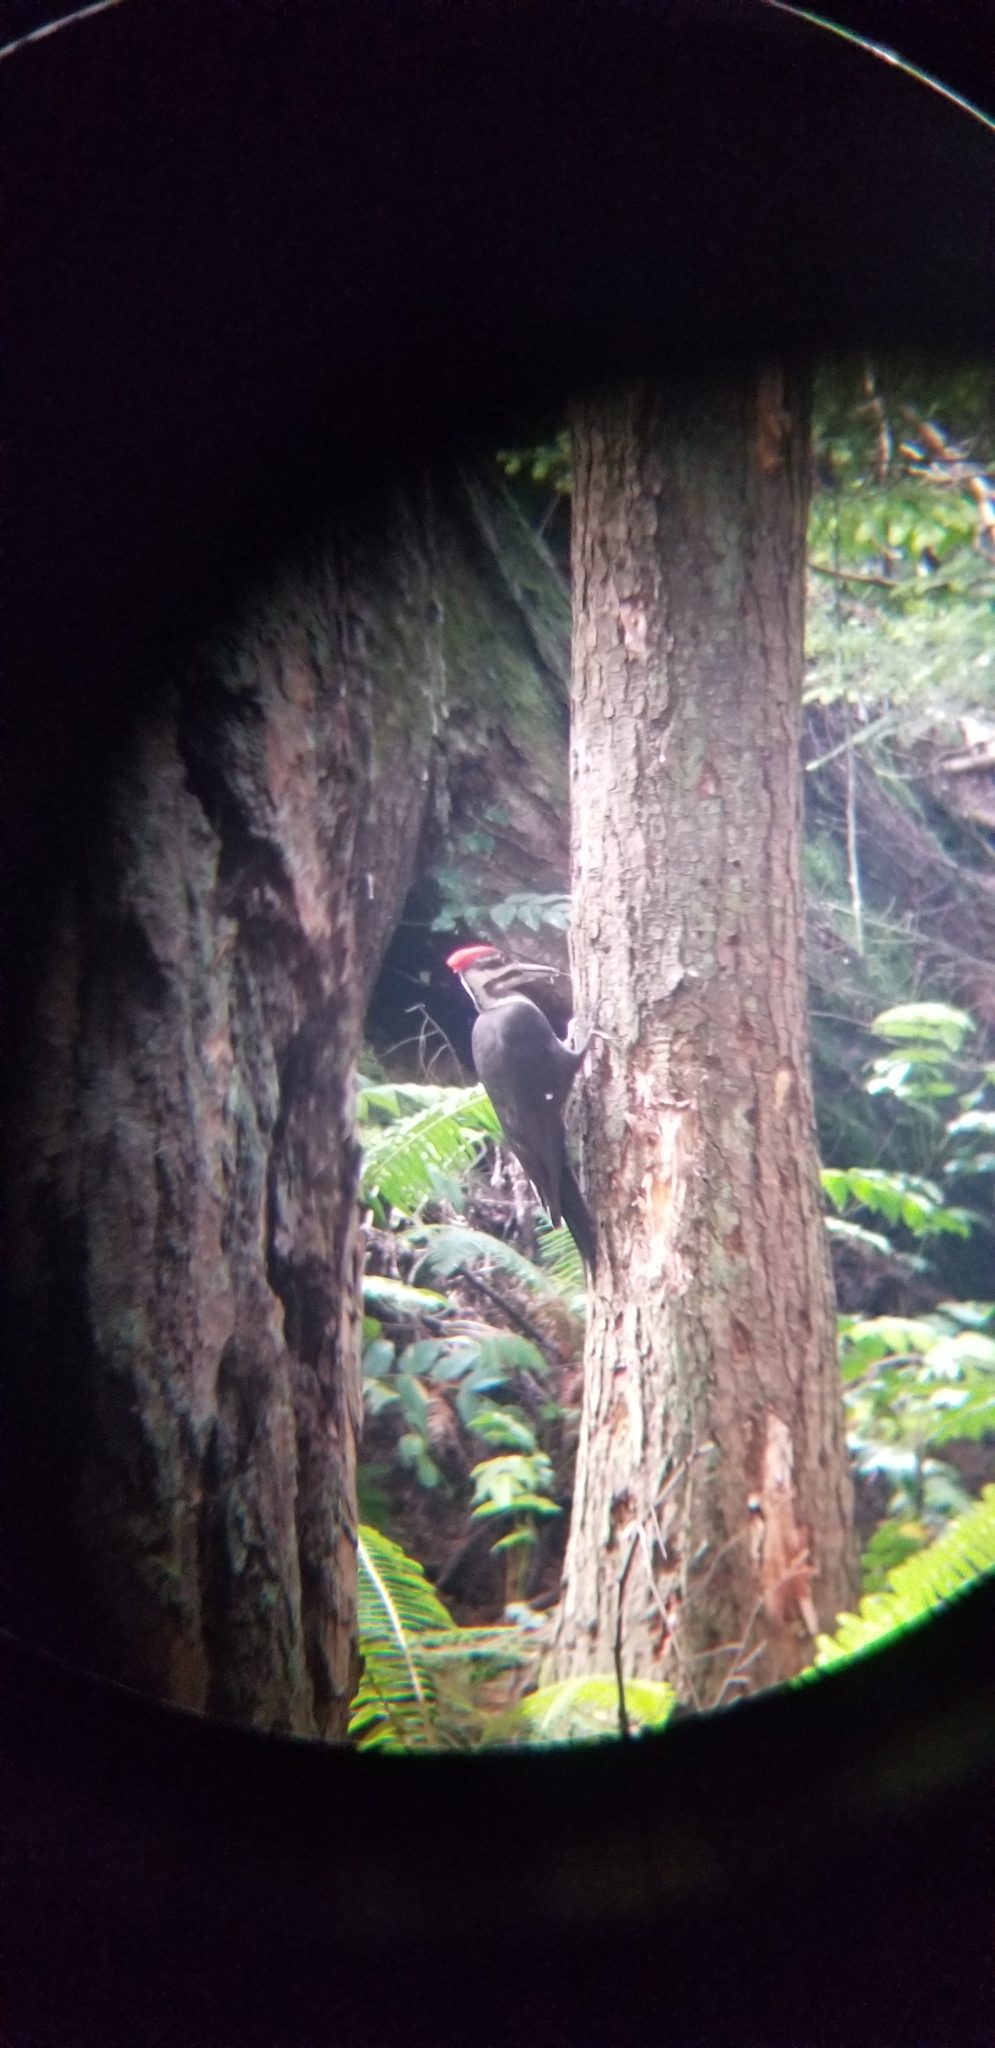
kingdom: Animalia
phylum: Chordata
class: Aves
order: Piciformes
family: Picidae
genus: Dryocopus
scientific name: Dryocopus pileatus
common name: Pileated woodpecker
